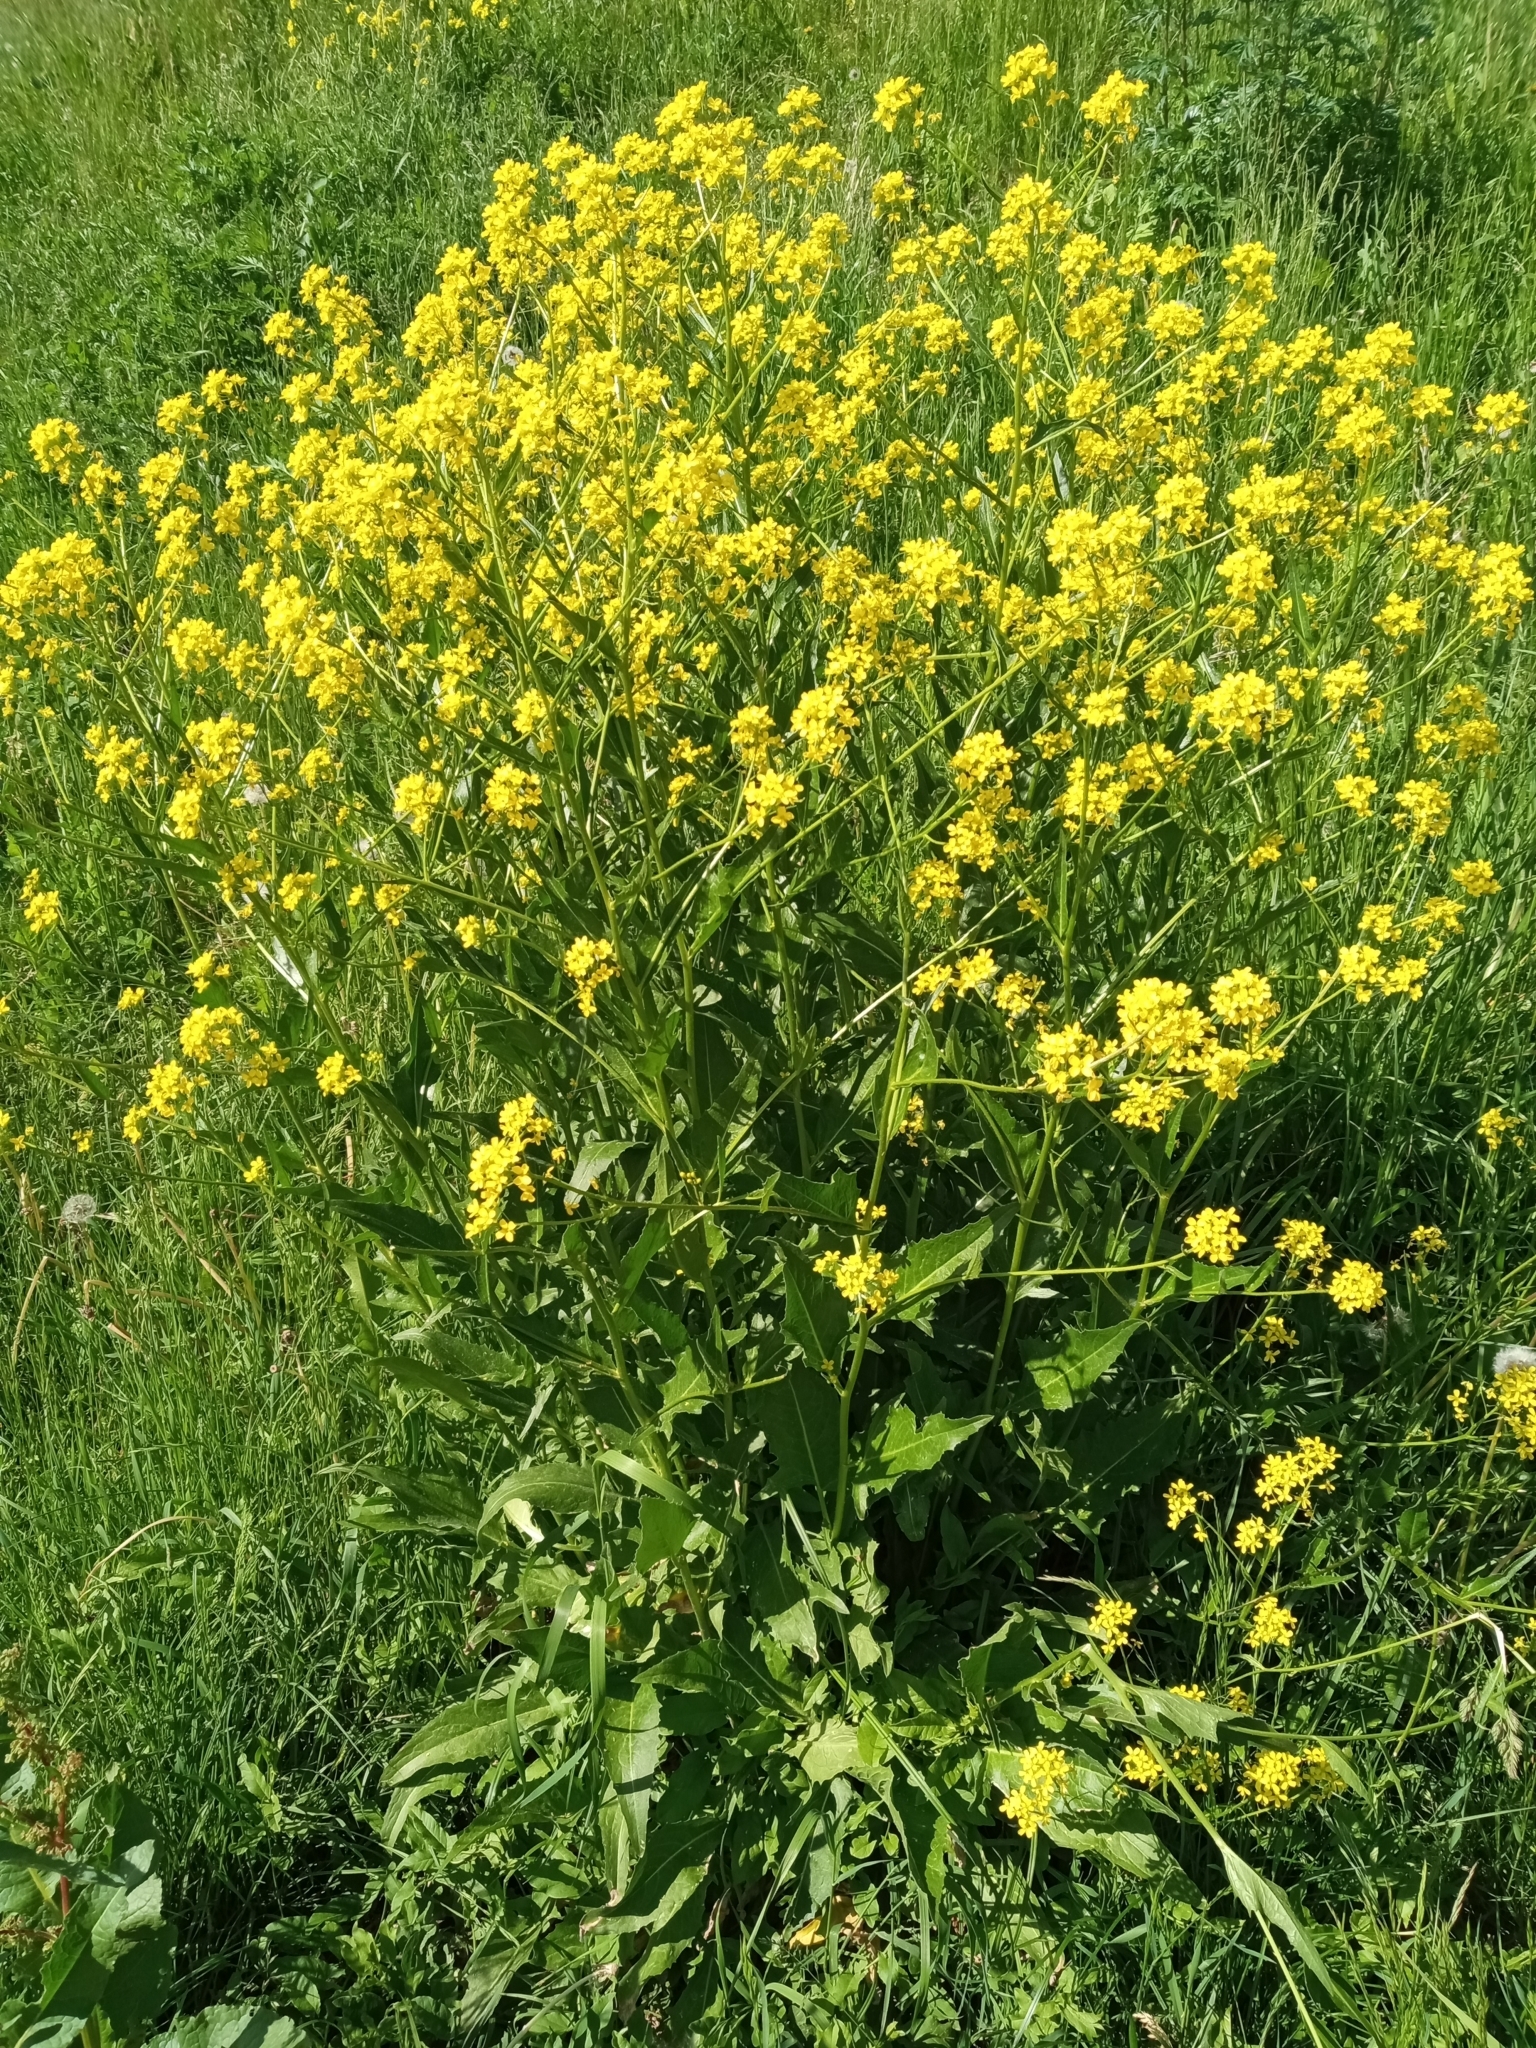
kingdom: Plantae
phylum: Tracheophyta
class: Magnoliopsida
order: Brassicales
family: Brassicaceae
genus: Bunias
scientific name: Bunias orientalis
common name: Warty-cabbage
